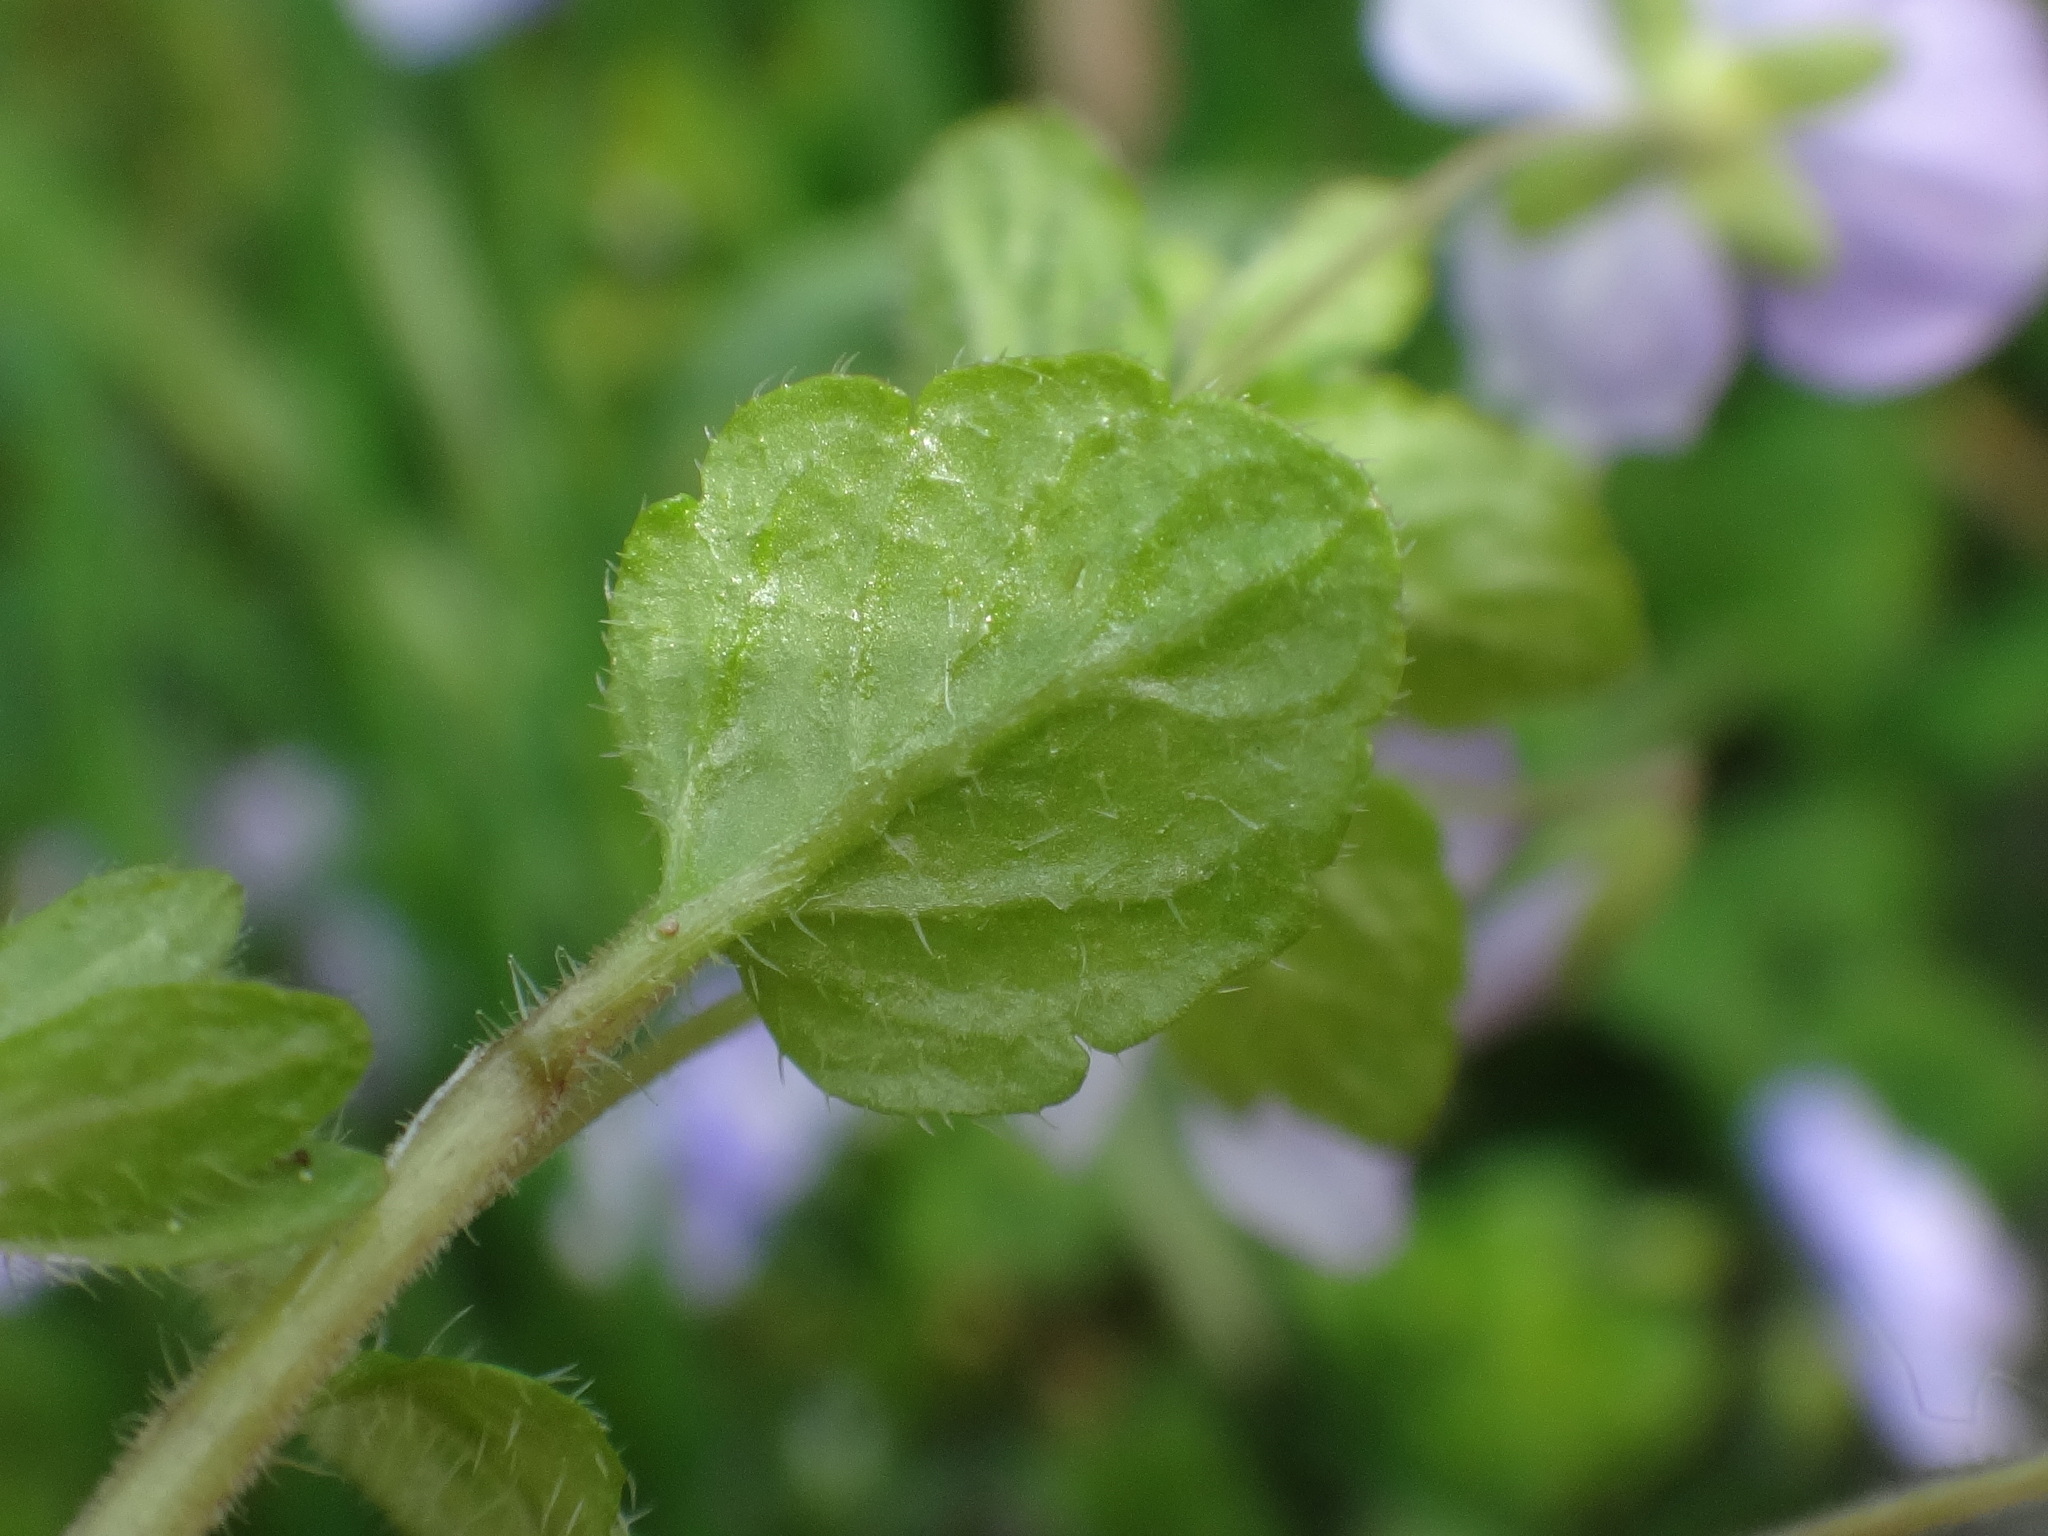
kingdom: Plantae
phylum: Tracheophyta
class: Magnoliopsida
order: Lamiales
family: Plantaginaceae
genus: Veronica
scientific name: Veronica filiformis
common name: Slender speedwell
